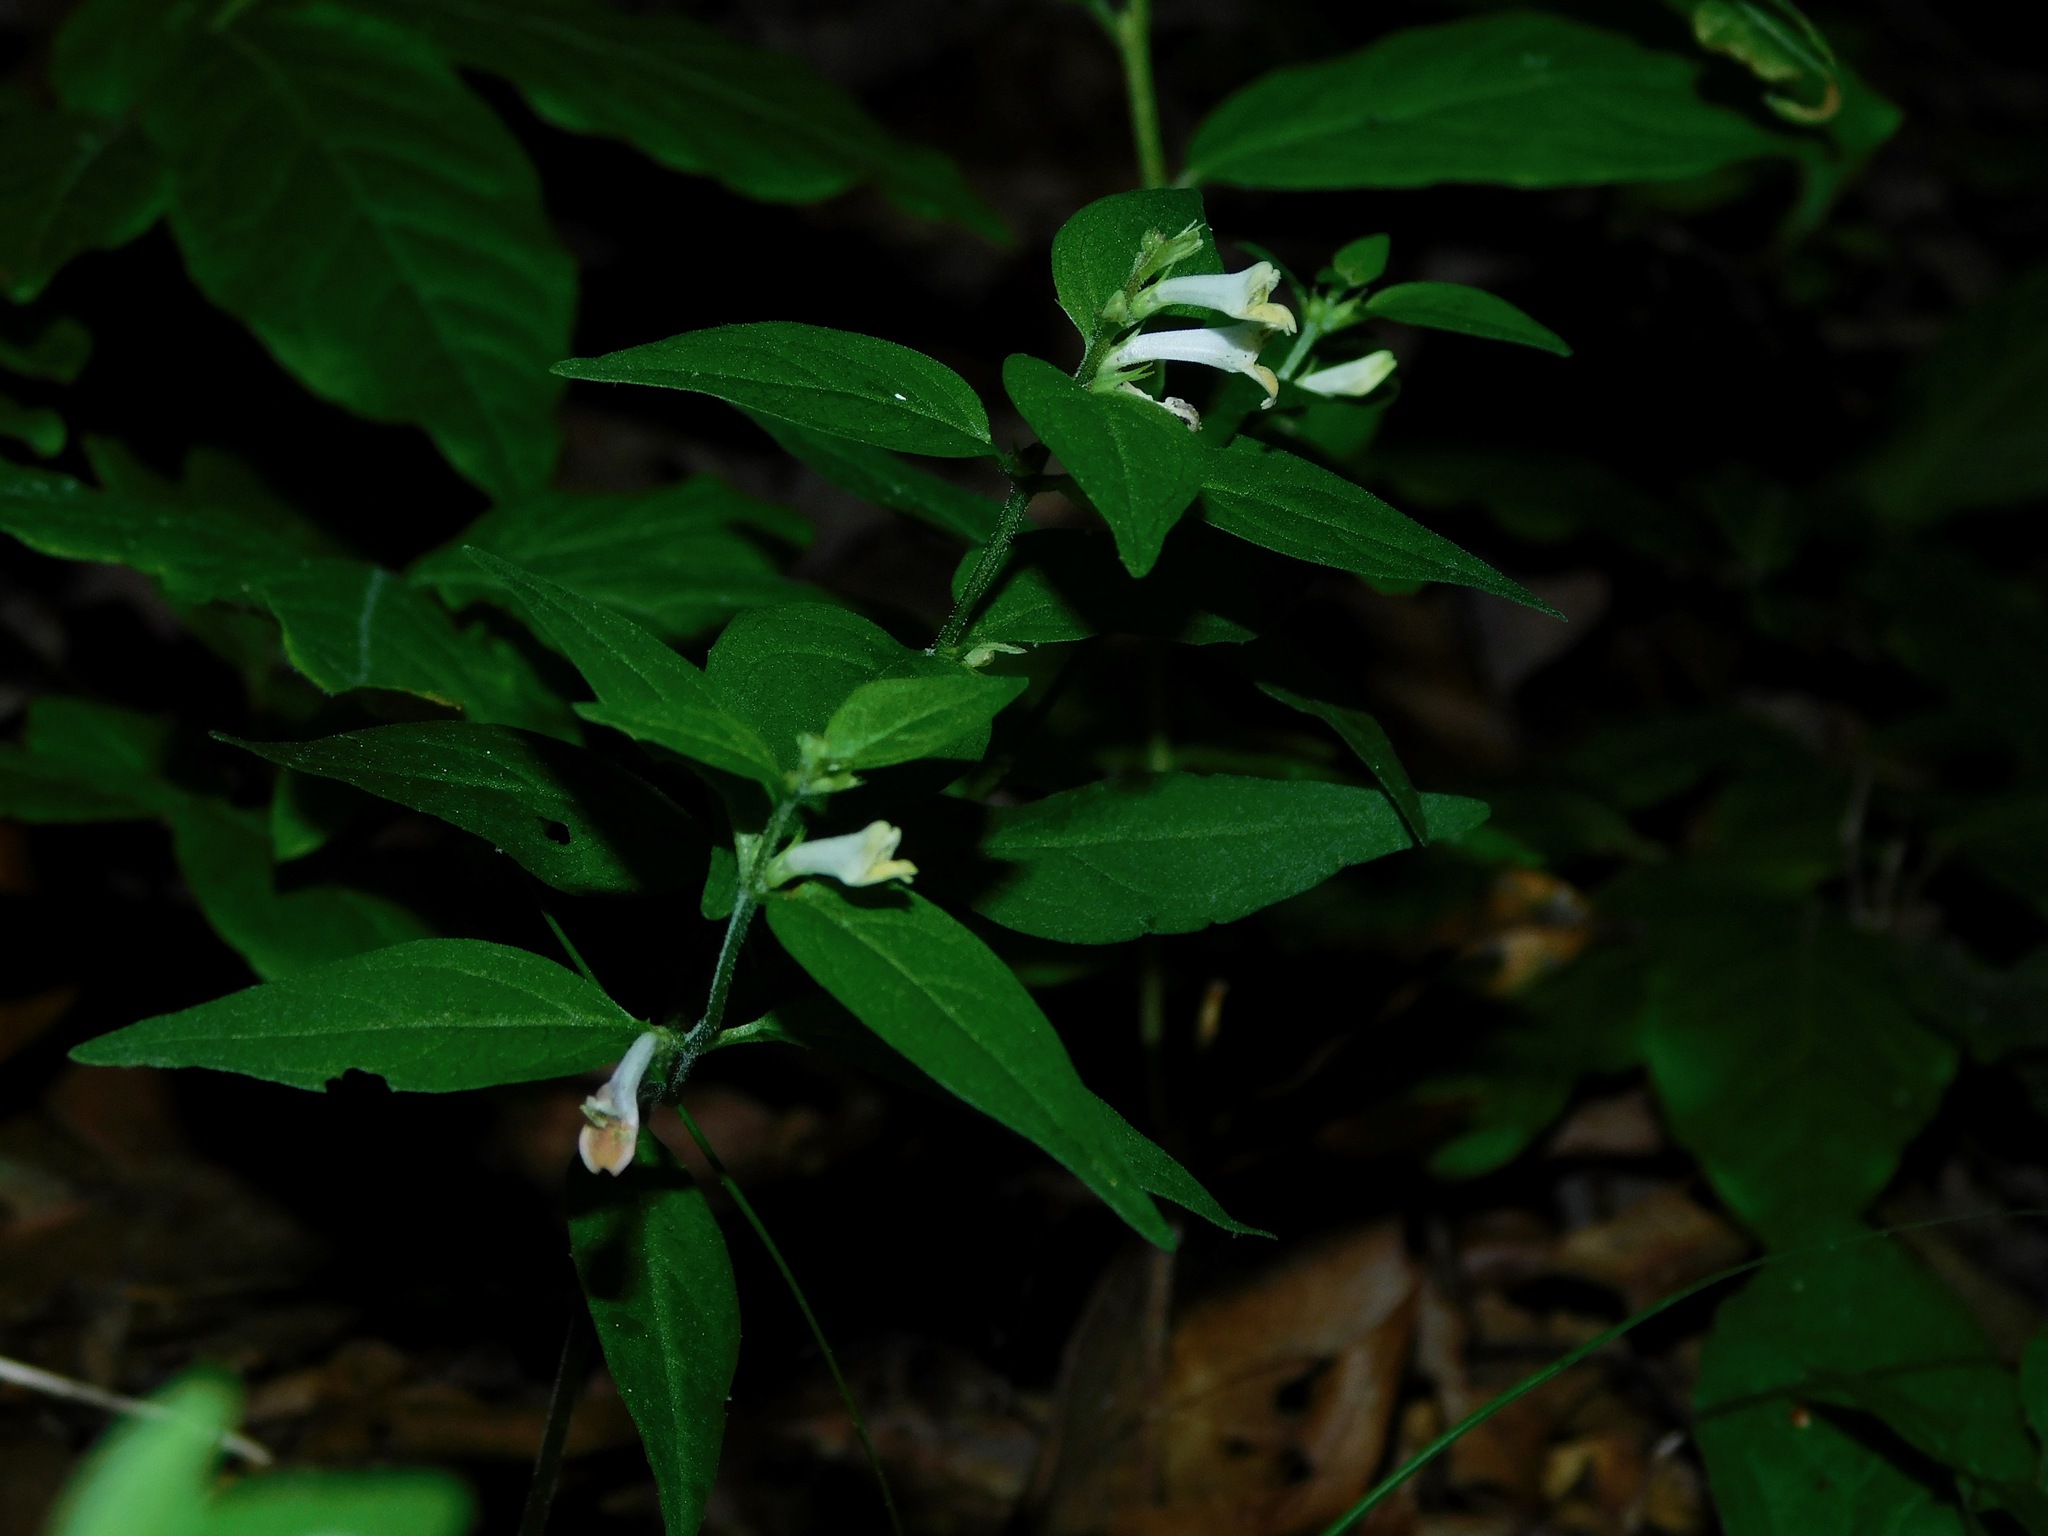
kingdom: Plantae
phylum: Tracheophyta
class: Magnoliopsida
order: Lamiales
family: Orobanchaceae
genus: Melampyrum
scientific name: Melampyrum lineare
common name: American cow-wheat
